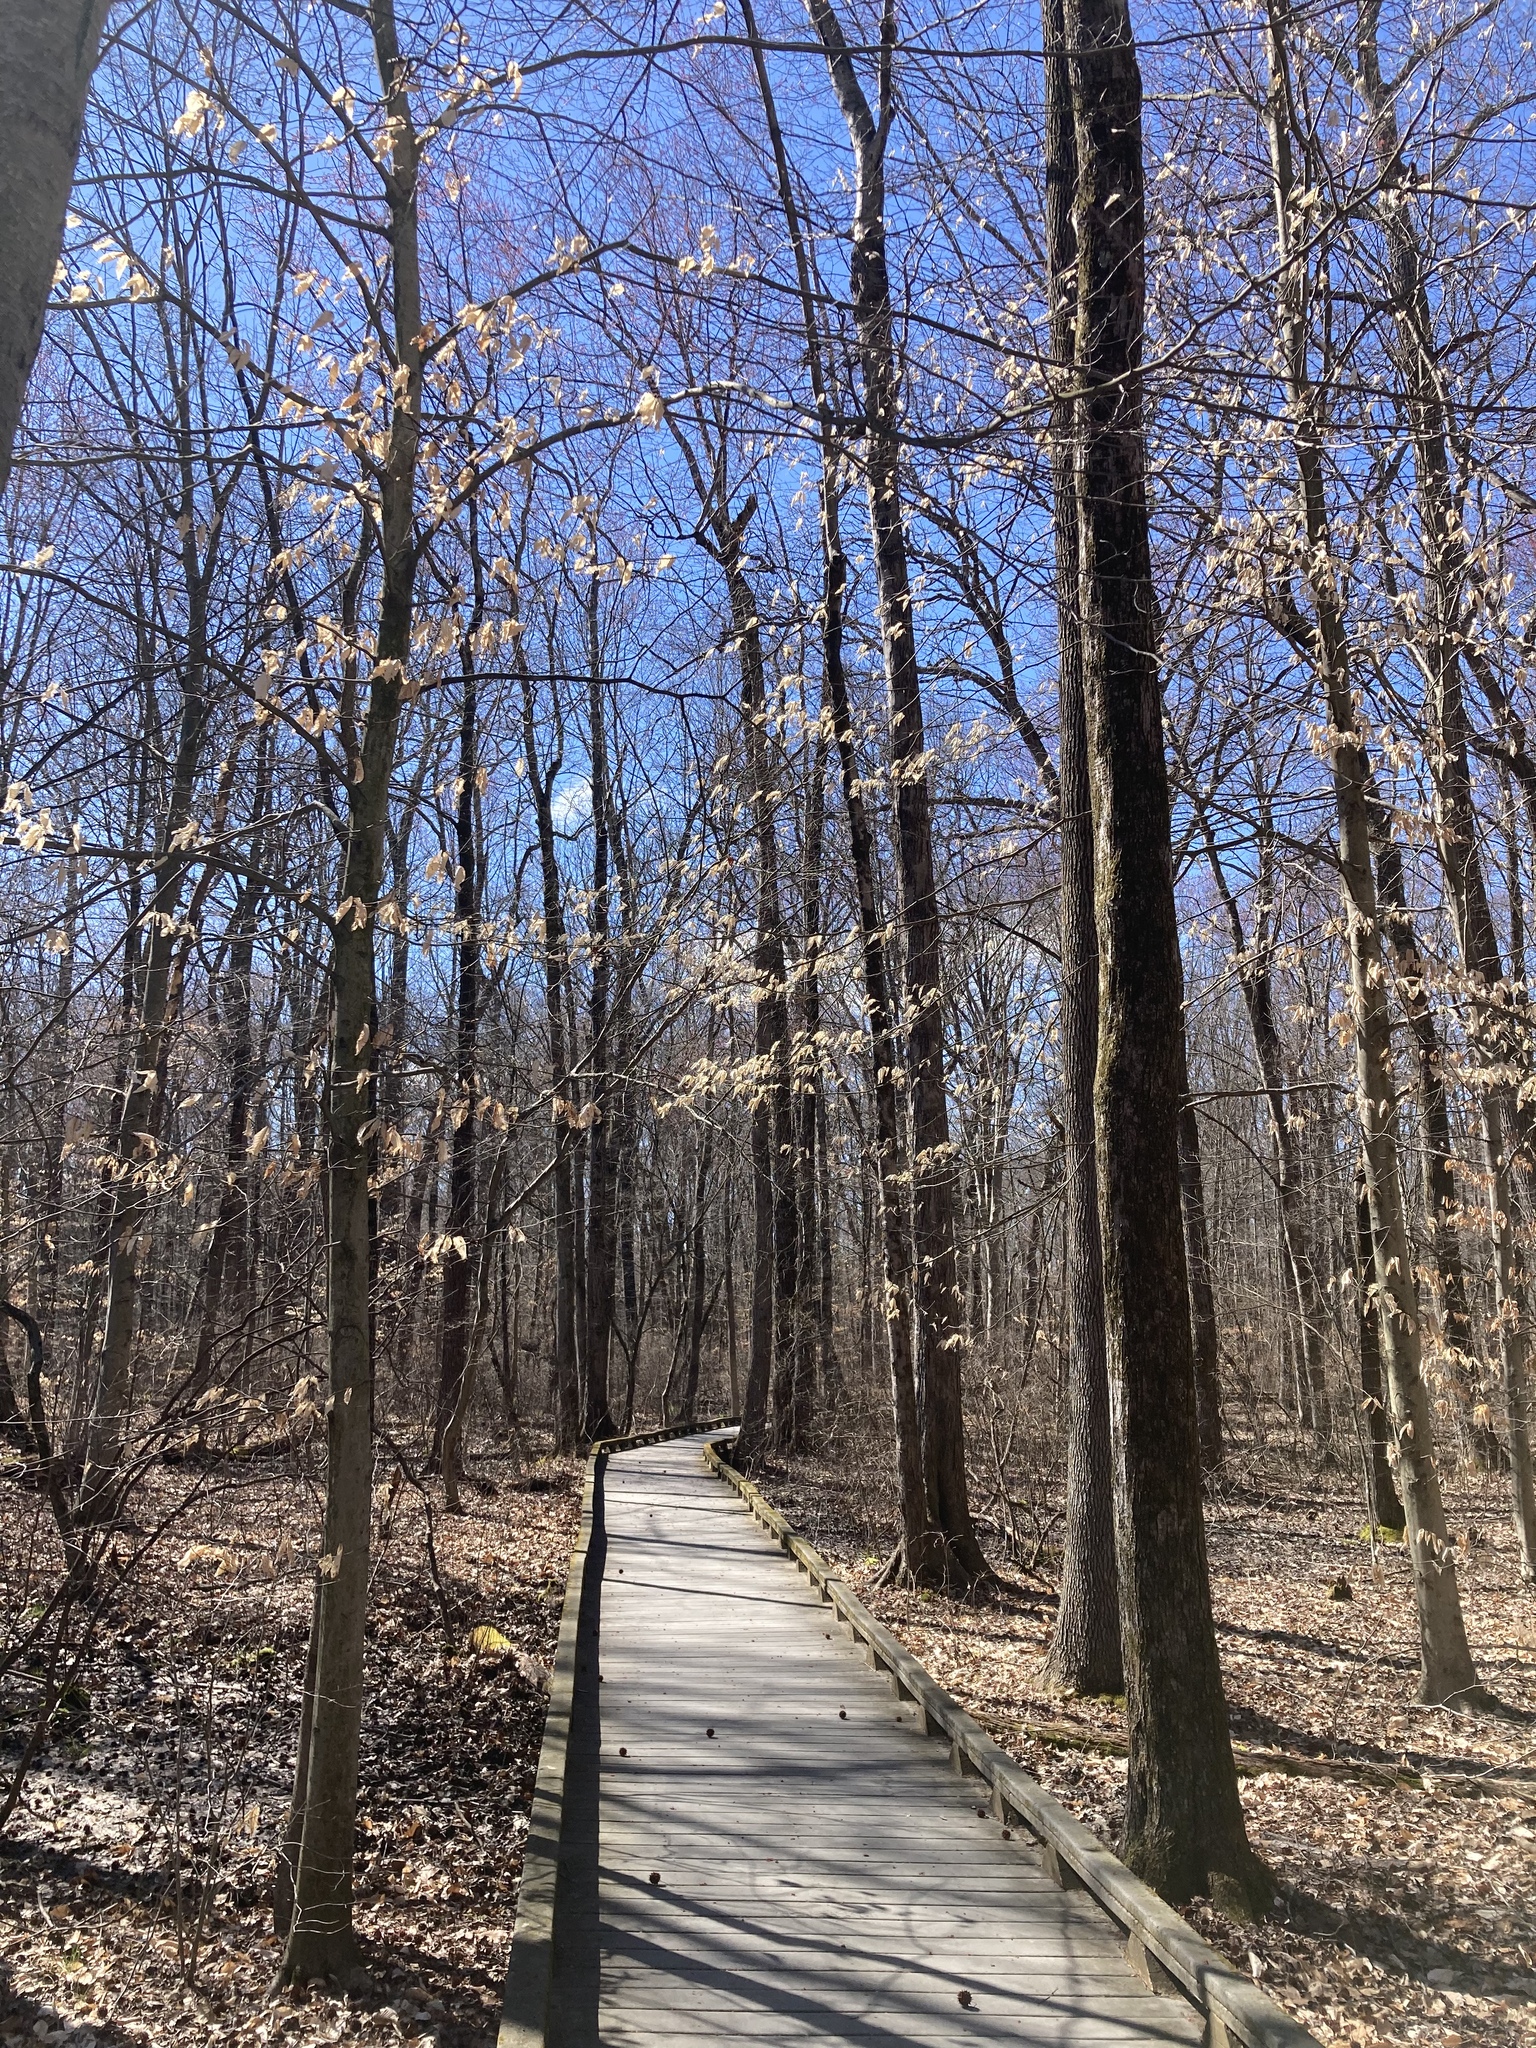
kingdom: Plantae
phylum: Tracheophyta
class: Magnoliopsida
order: Fagales
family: Fagaceae
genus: Fagus
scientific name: Fagus grandifolia
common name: American beech
